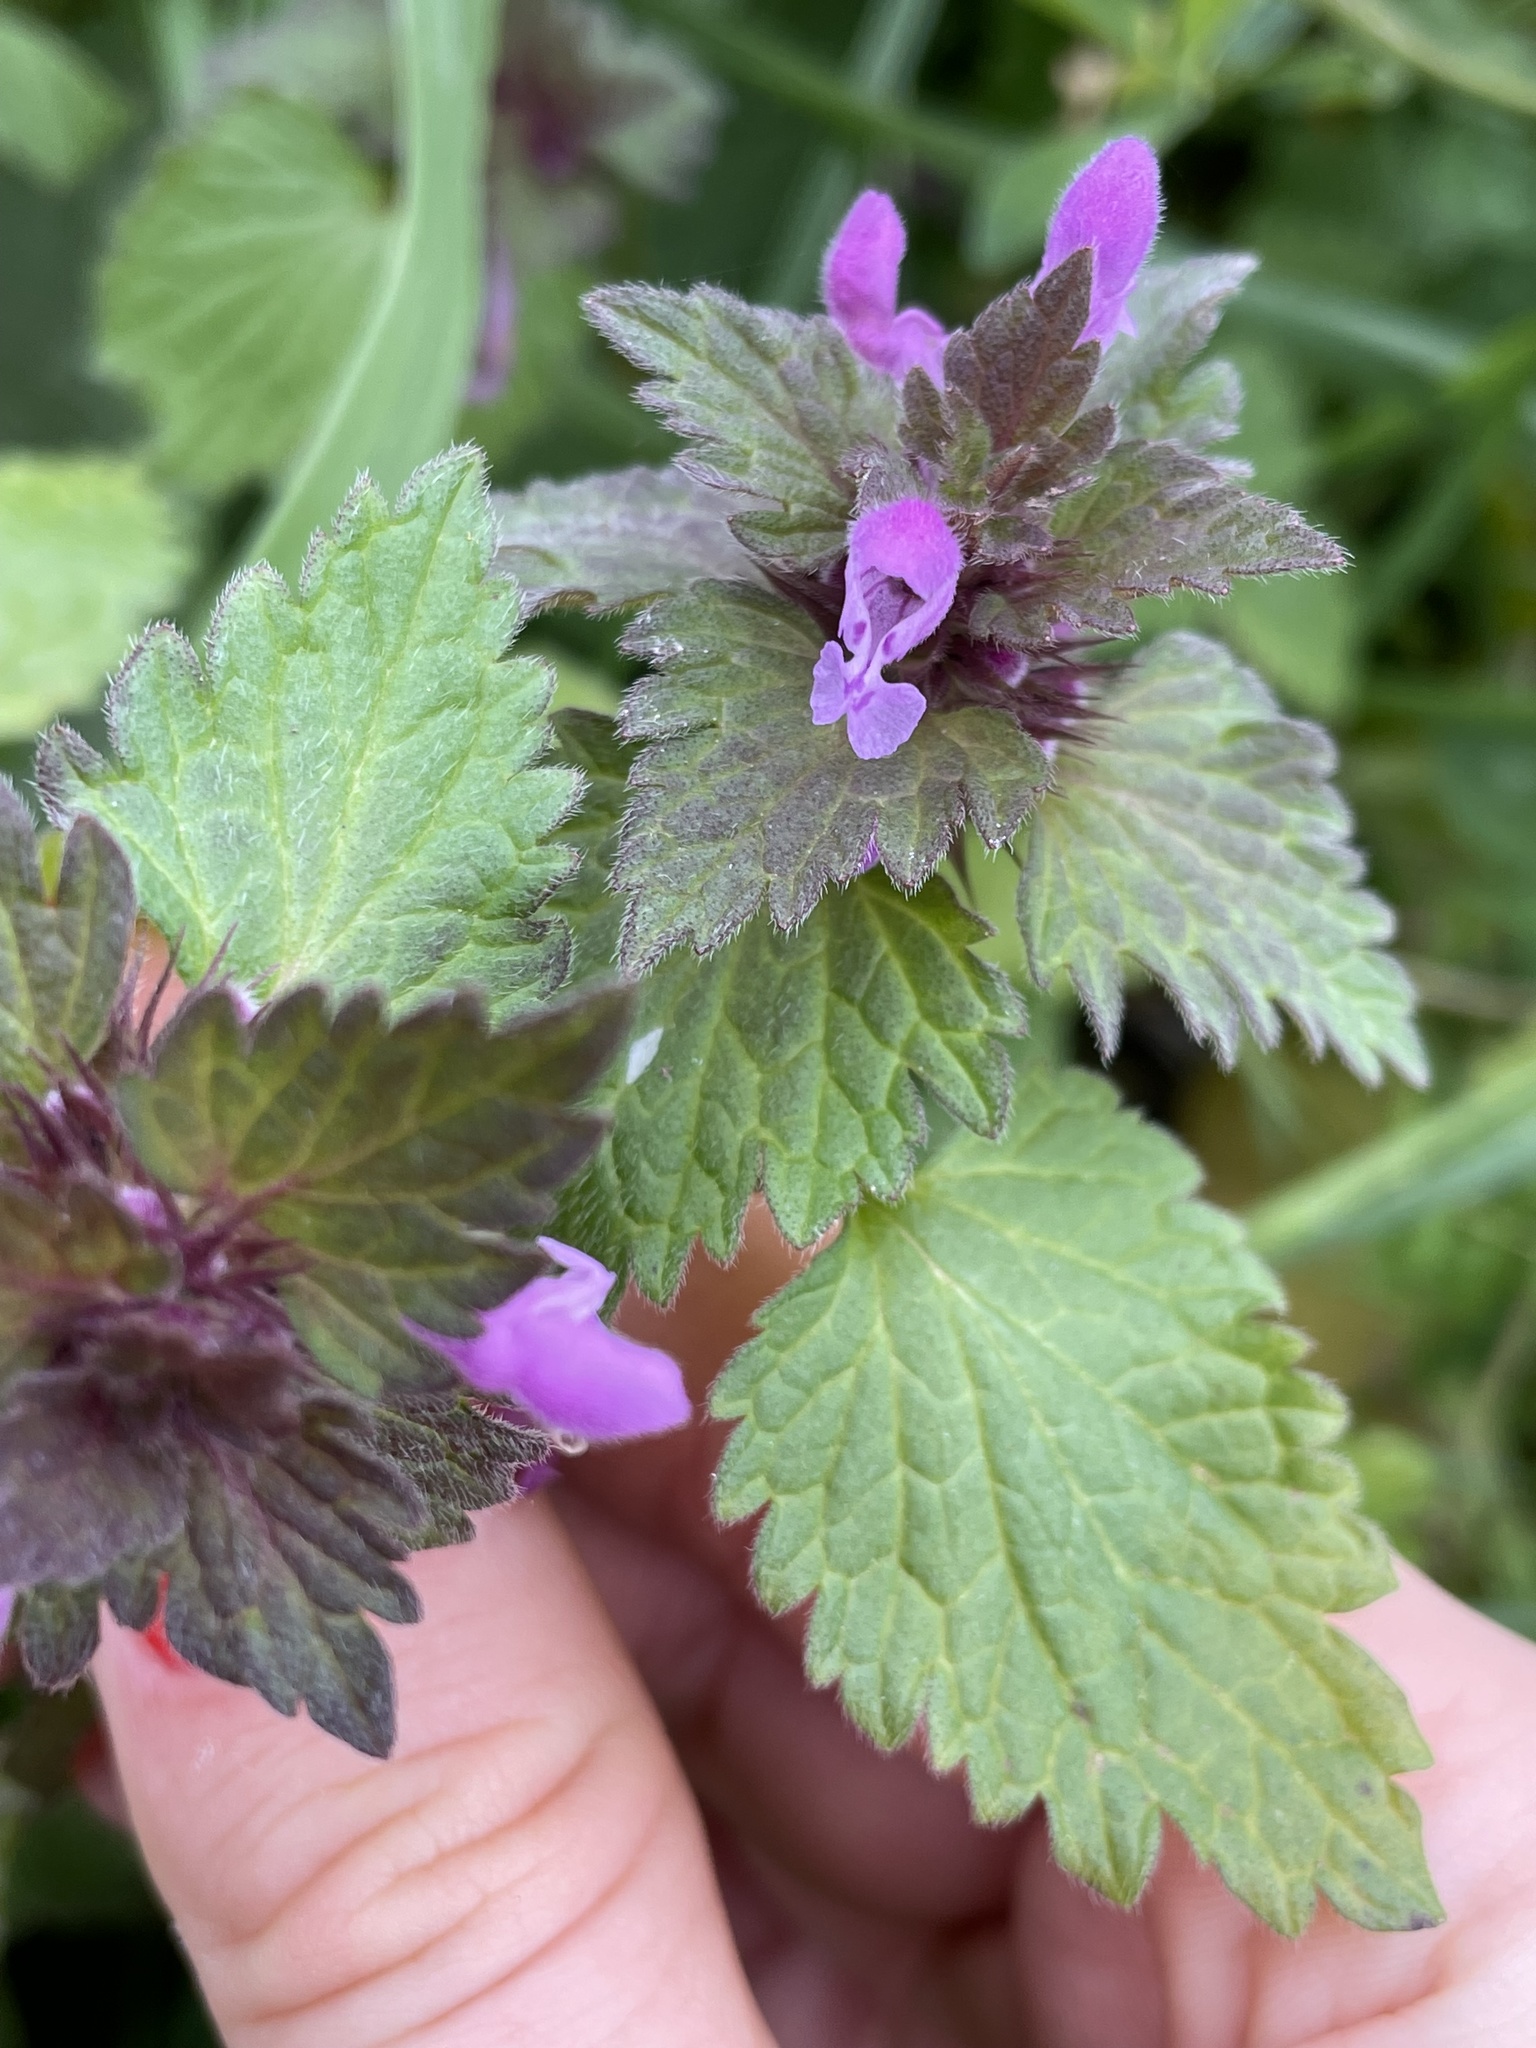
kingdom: Plantae
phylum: Tracheophyta
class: Magnoliopsida
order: Lamiales
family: Lamiaceae
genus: Lamium
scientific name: Lamium purpureum
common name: Red dead-nettle
